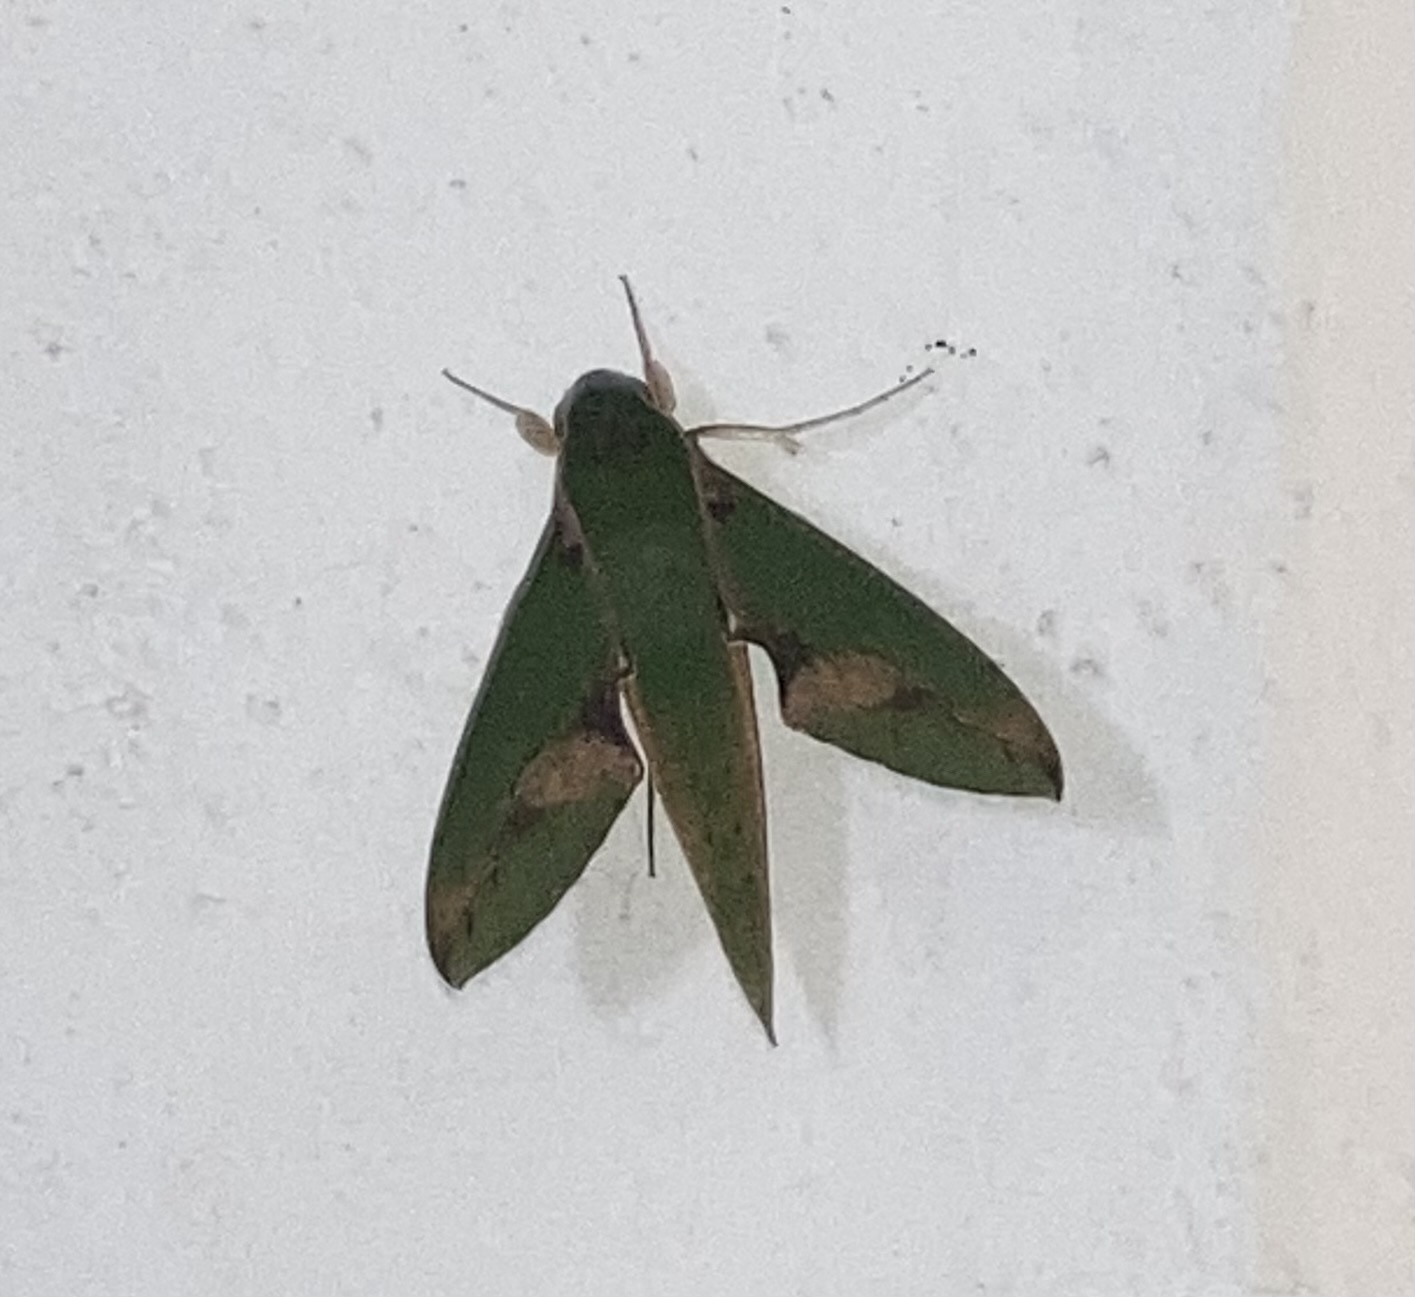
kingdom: Animalia
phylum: Arthropoda
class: Insecta
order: Lepidoptera
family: Sphingidae
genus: Xylophanes
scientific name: Xylophanes chiron
